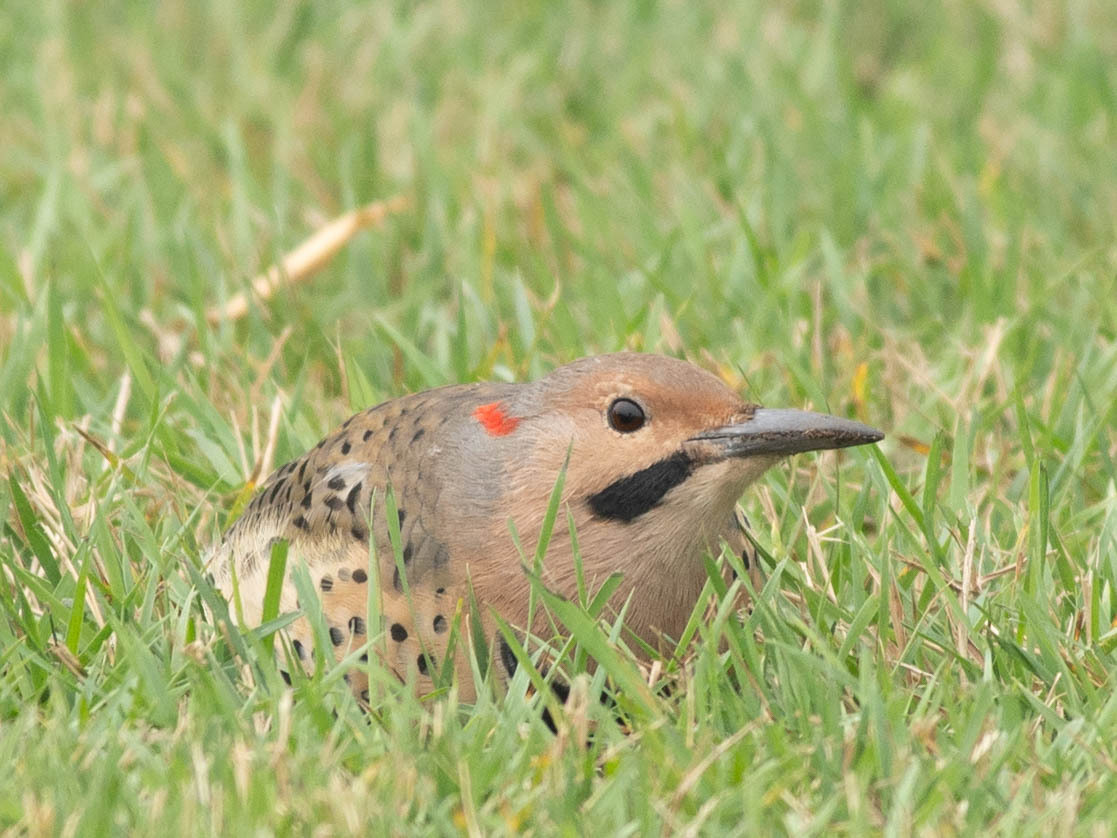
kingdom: Animalia
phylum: Chordata
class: Aves
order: Piciformes
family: Picidae
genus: Colaptes
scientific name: Colaptes auratus
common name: Northern flicker
